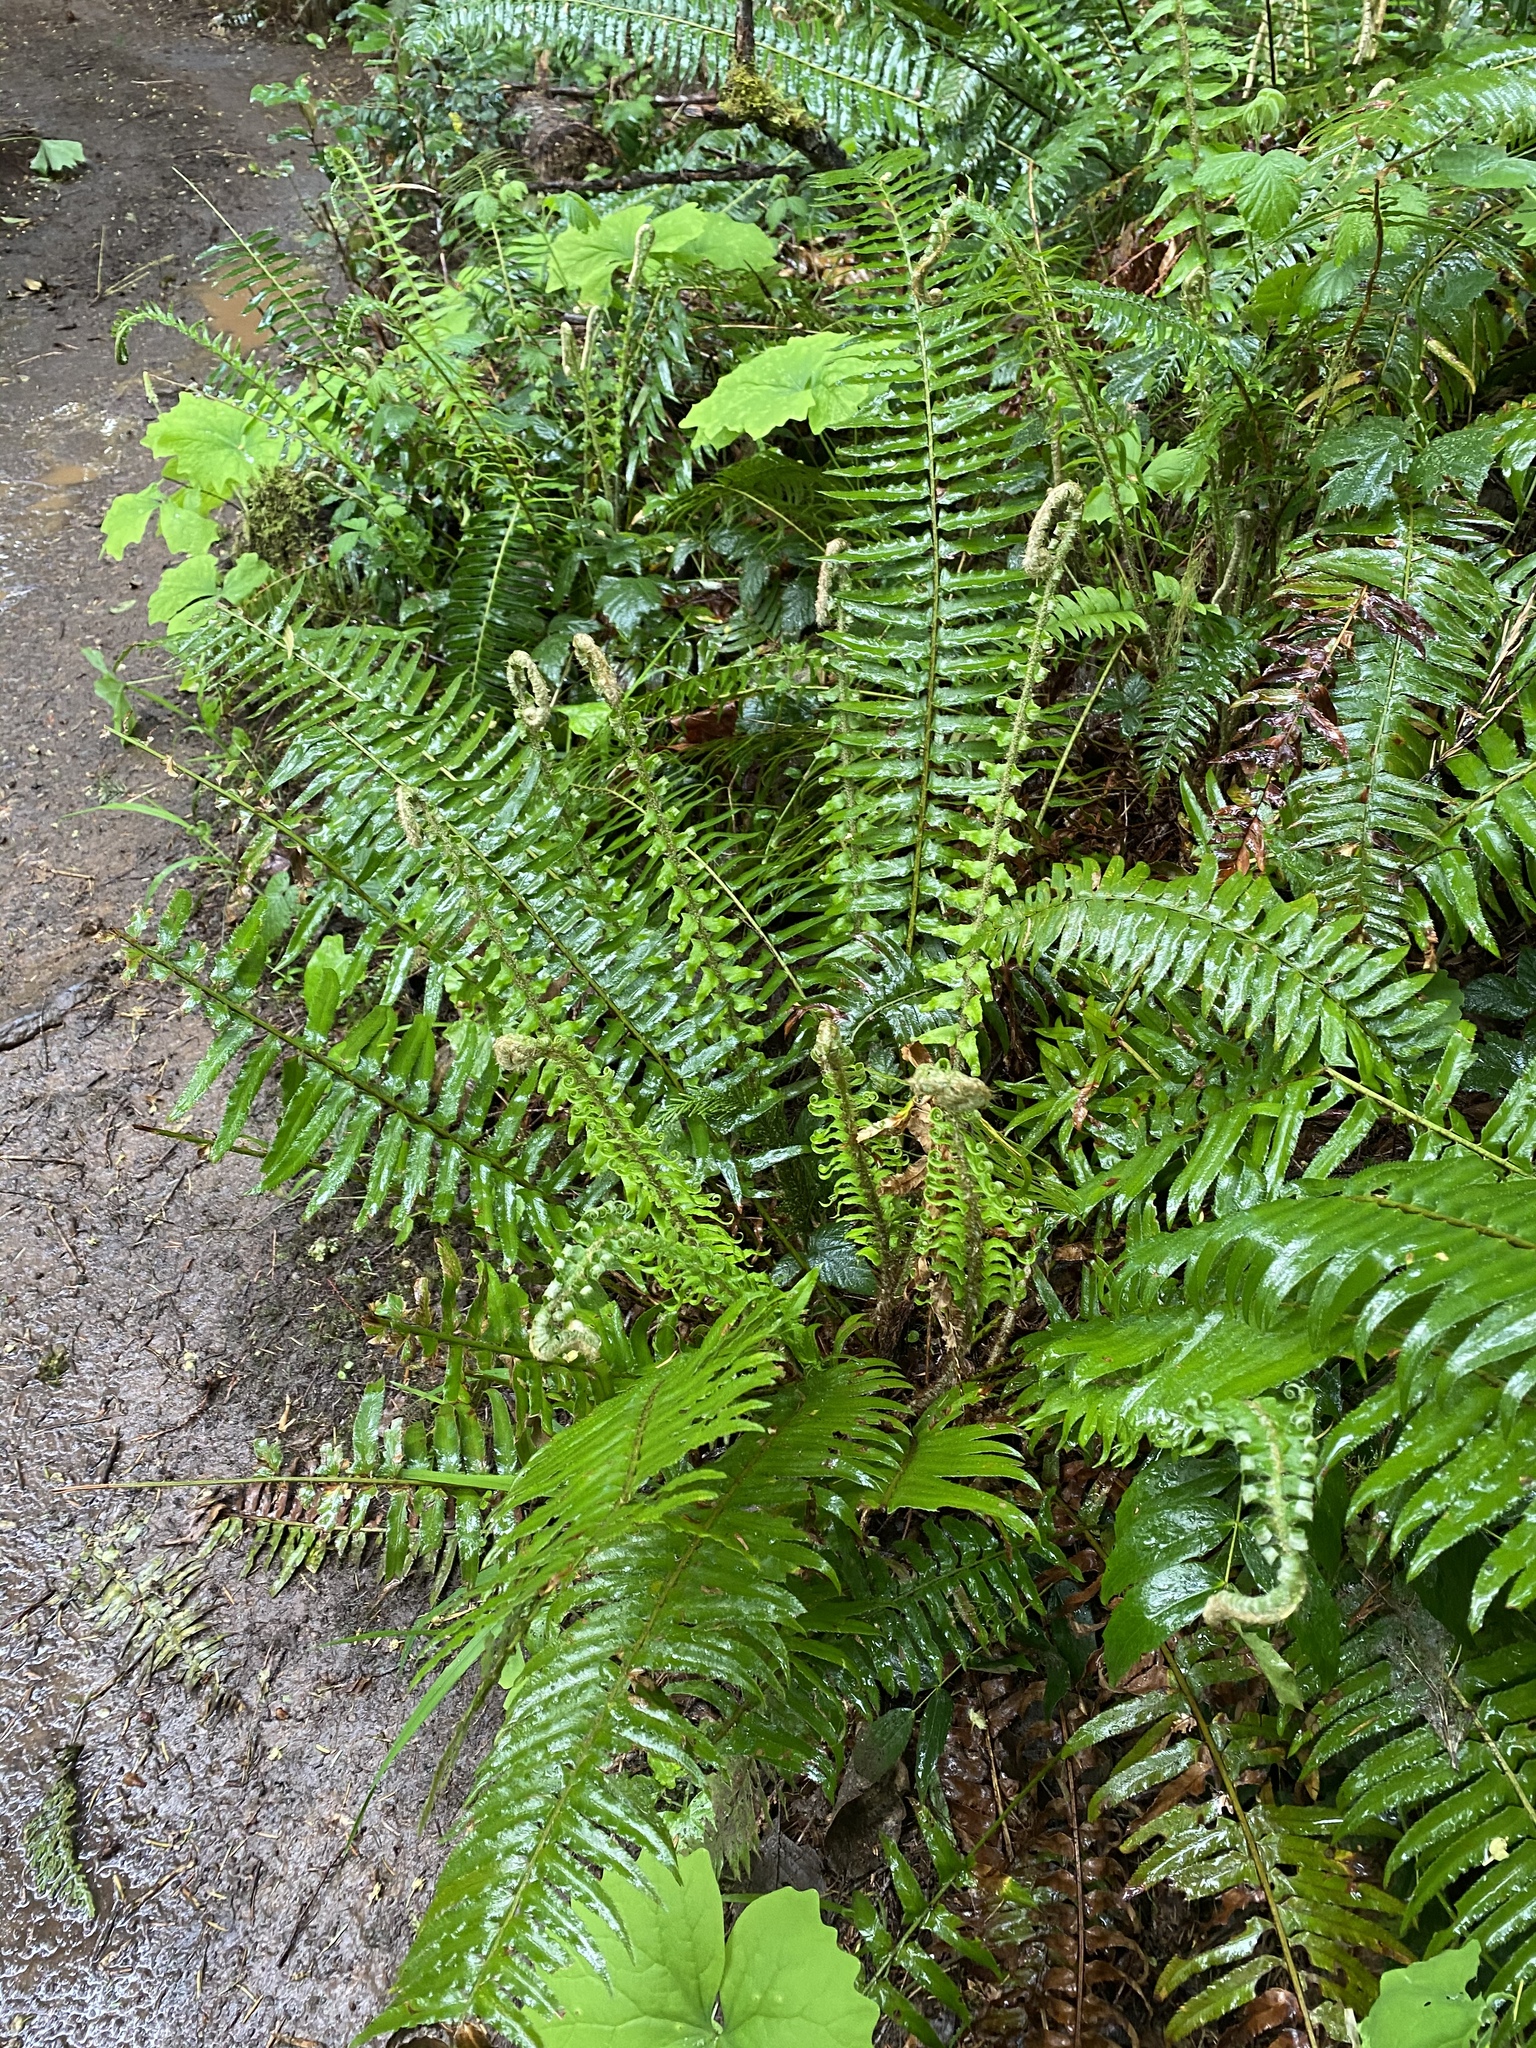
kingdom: Plantae
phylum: Tracheophyta
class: Polypodiopsida
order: Polypodiales
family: Dryopteridaceae
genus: Polystichum
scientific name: Polystichum munitum
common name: Western sword-fern
